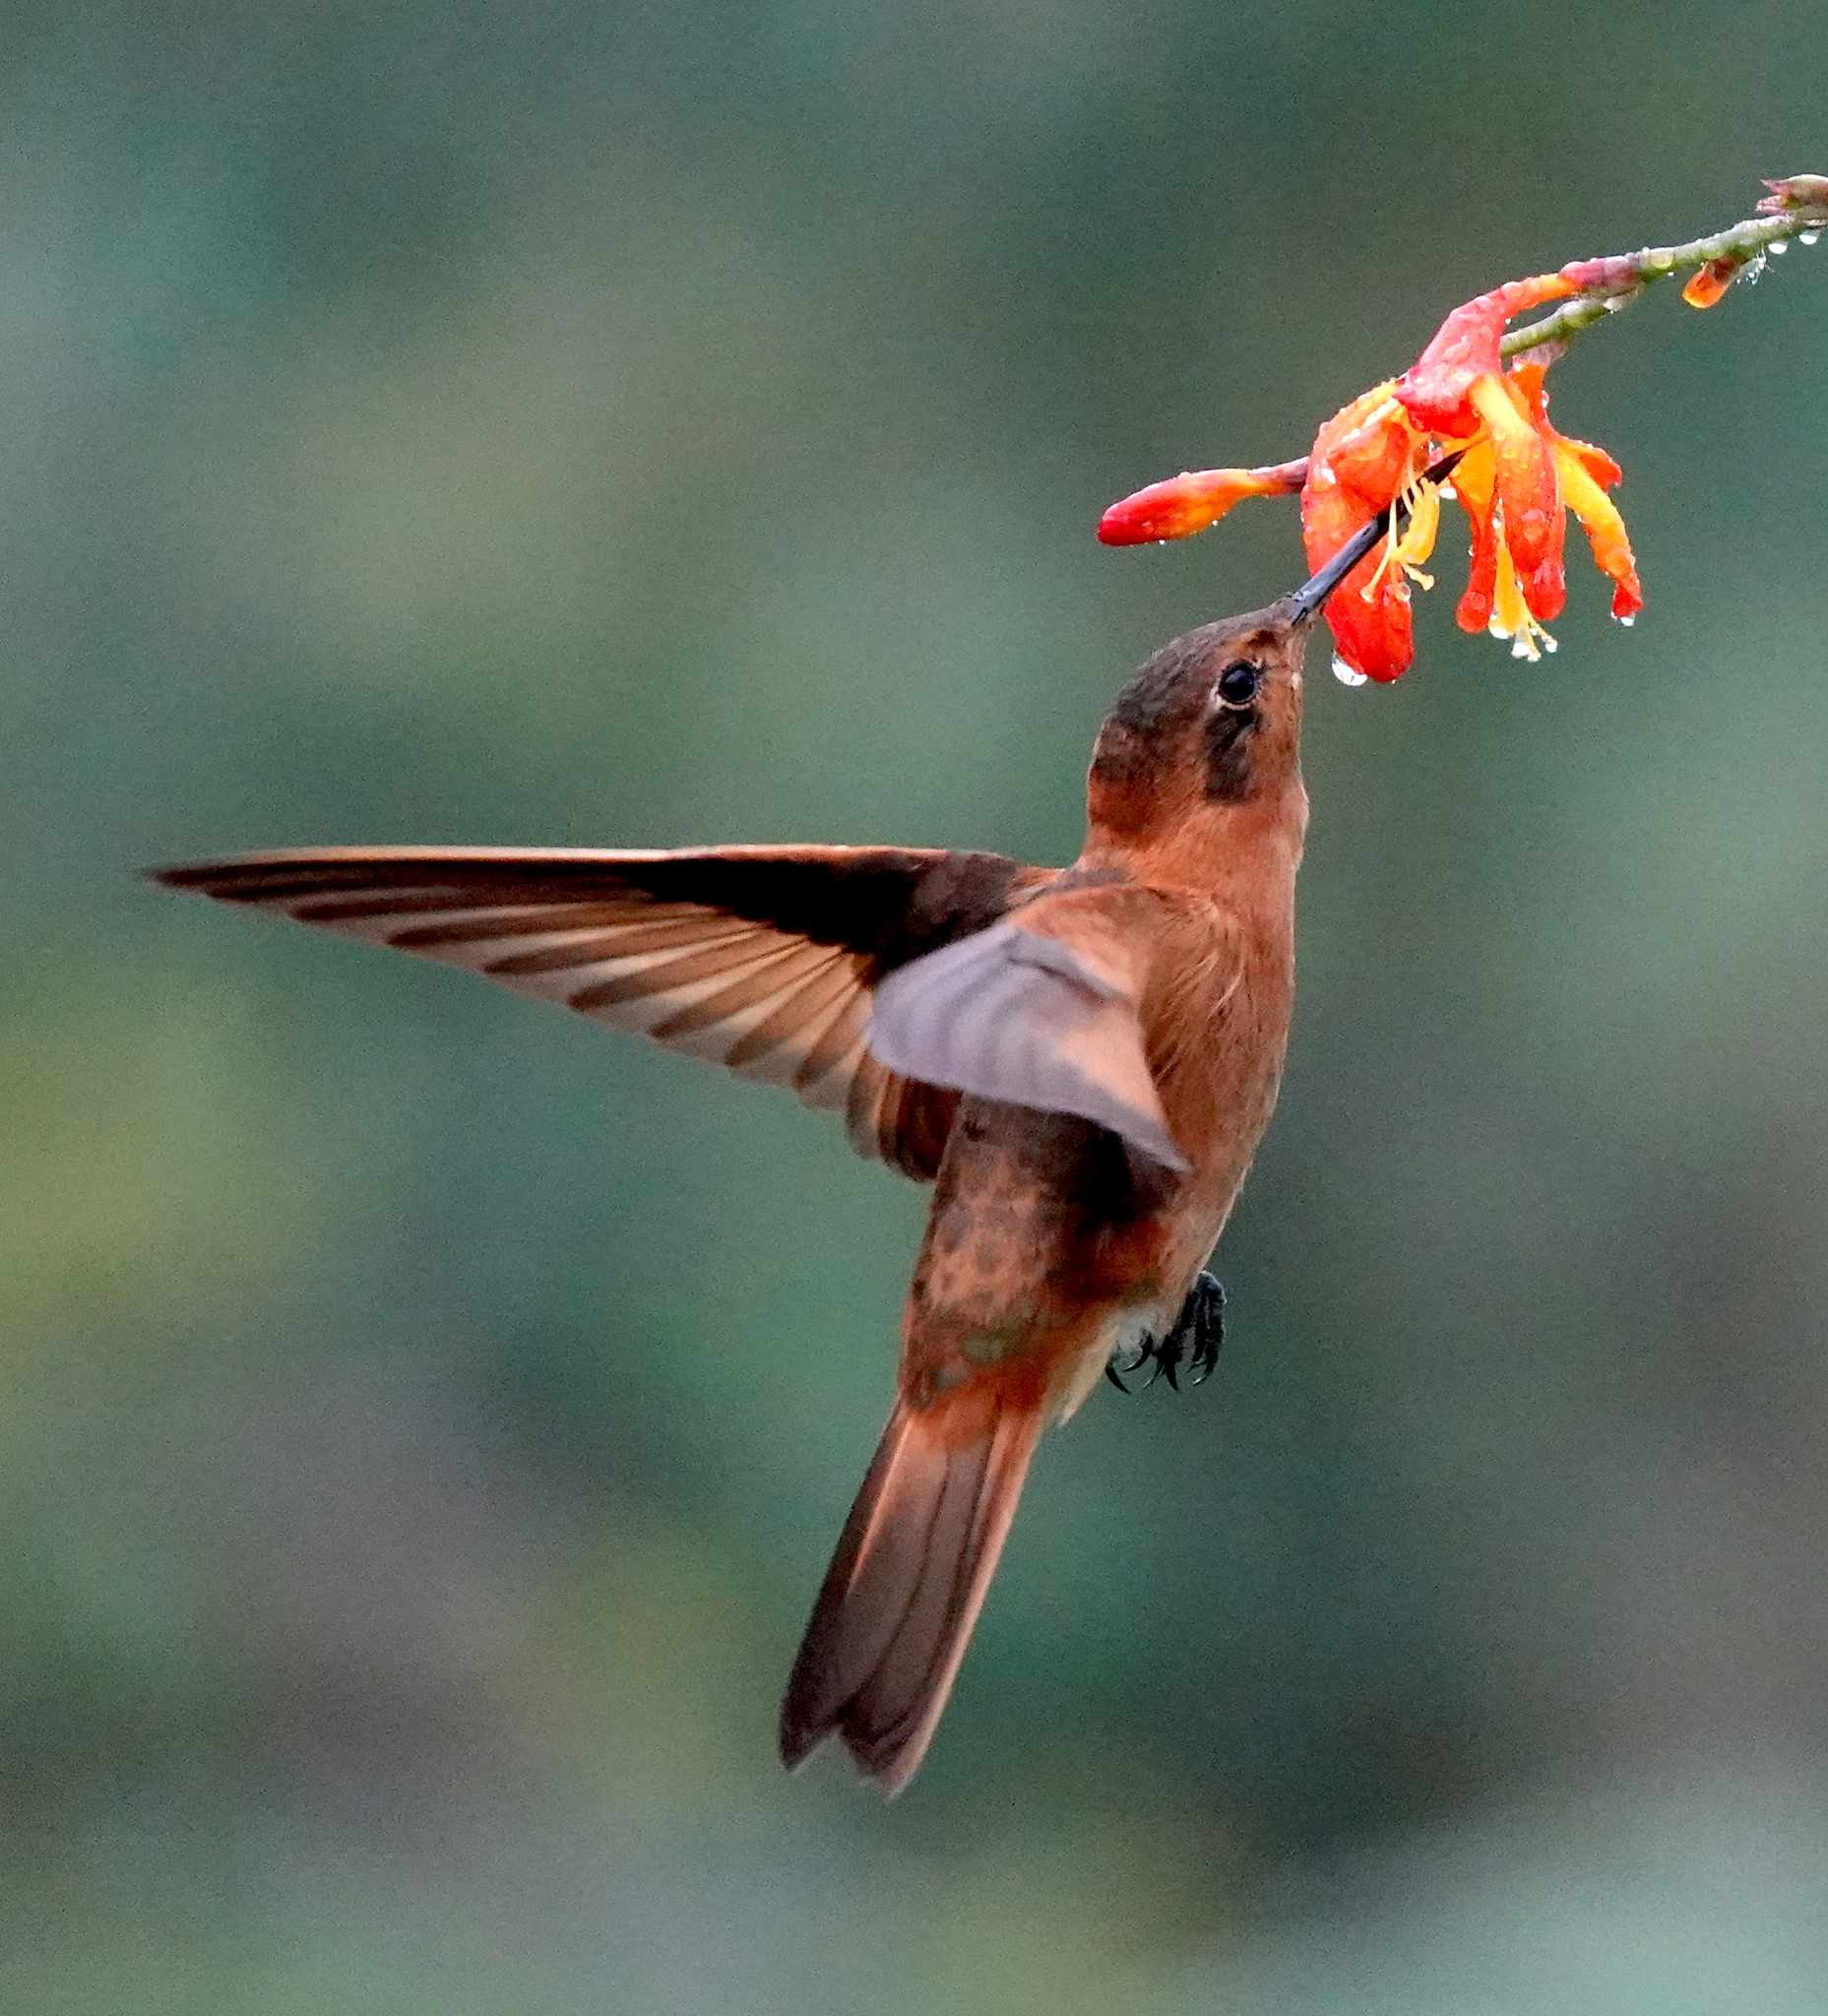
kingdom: Animalia
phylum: Chordata
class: Aves
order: Apodiformes
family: Trochilidae
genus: Aglaeactis
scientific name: Aglaeactis cupripennis
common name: Shining sunbeam
